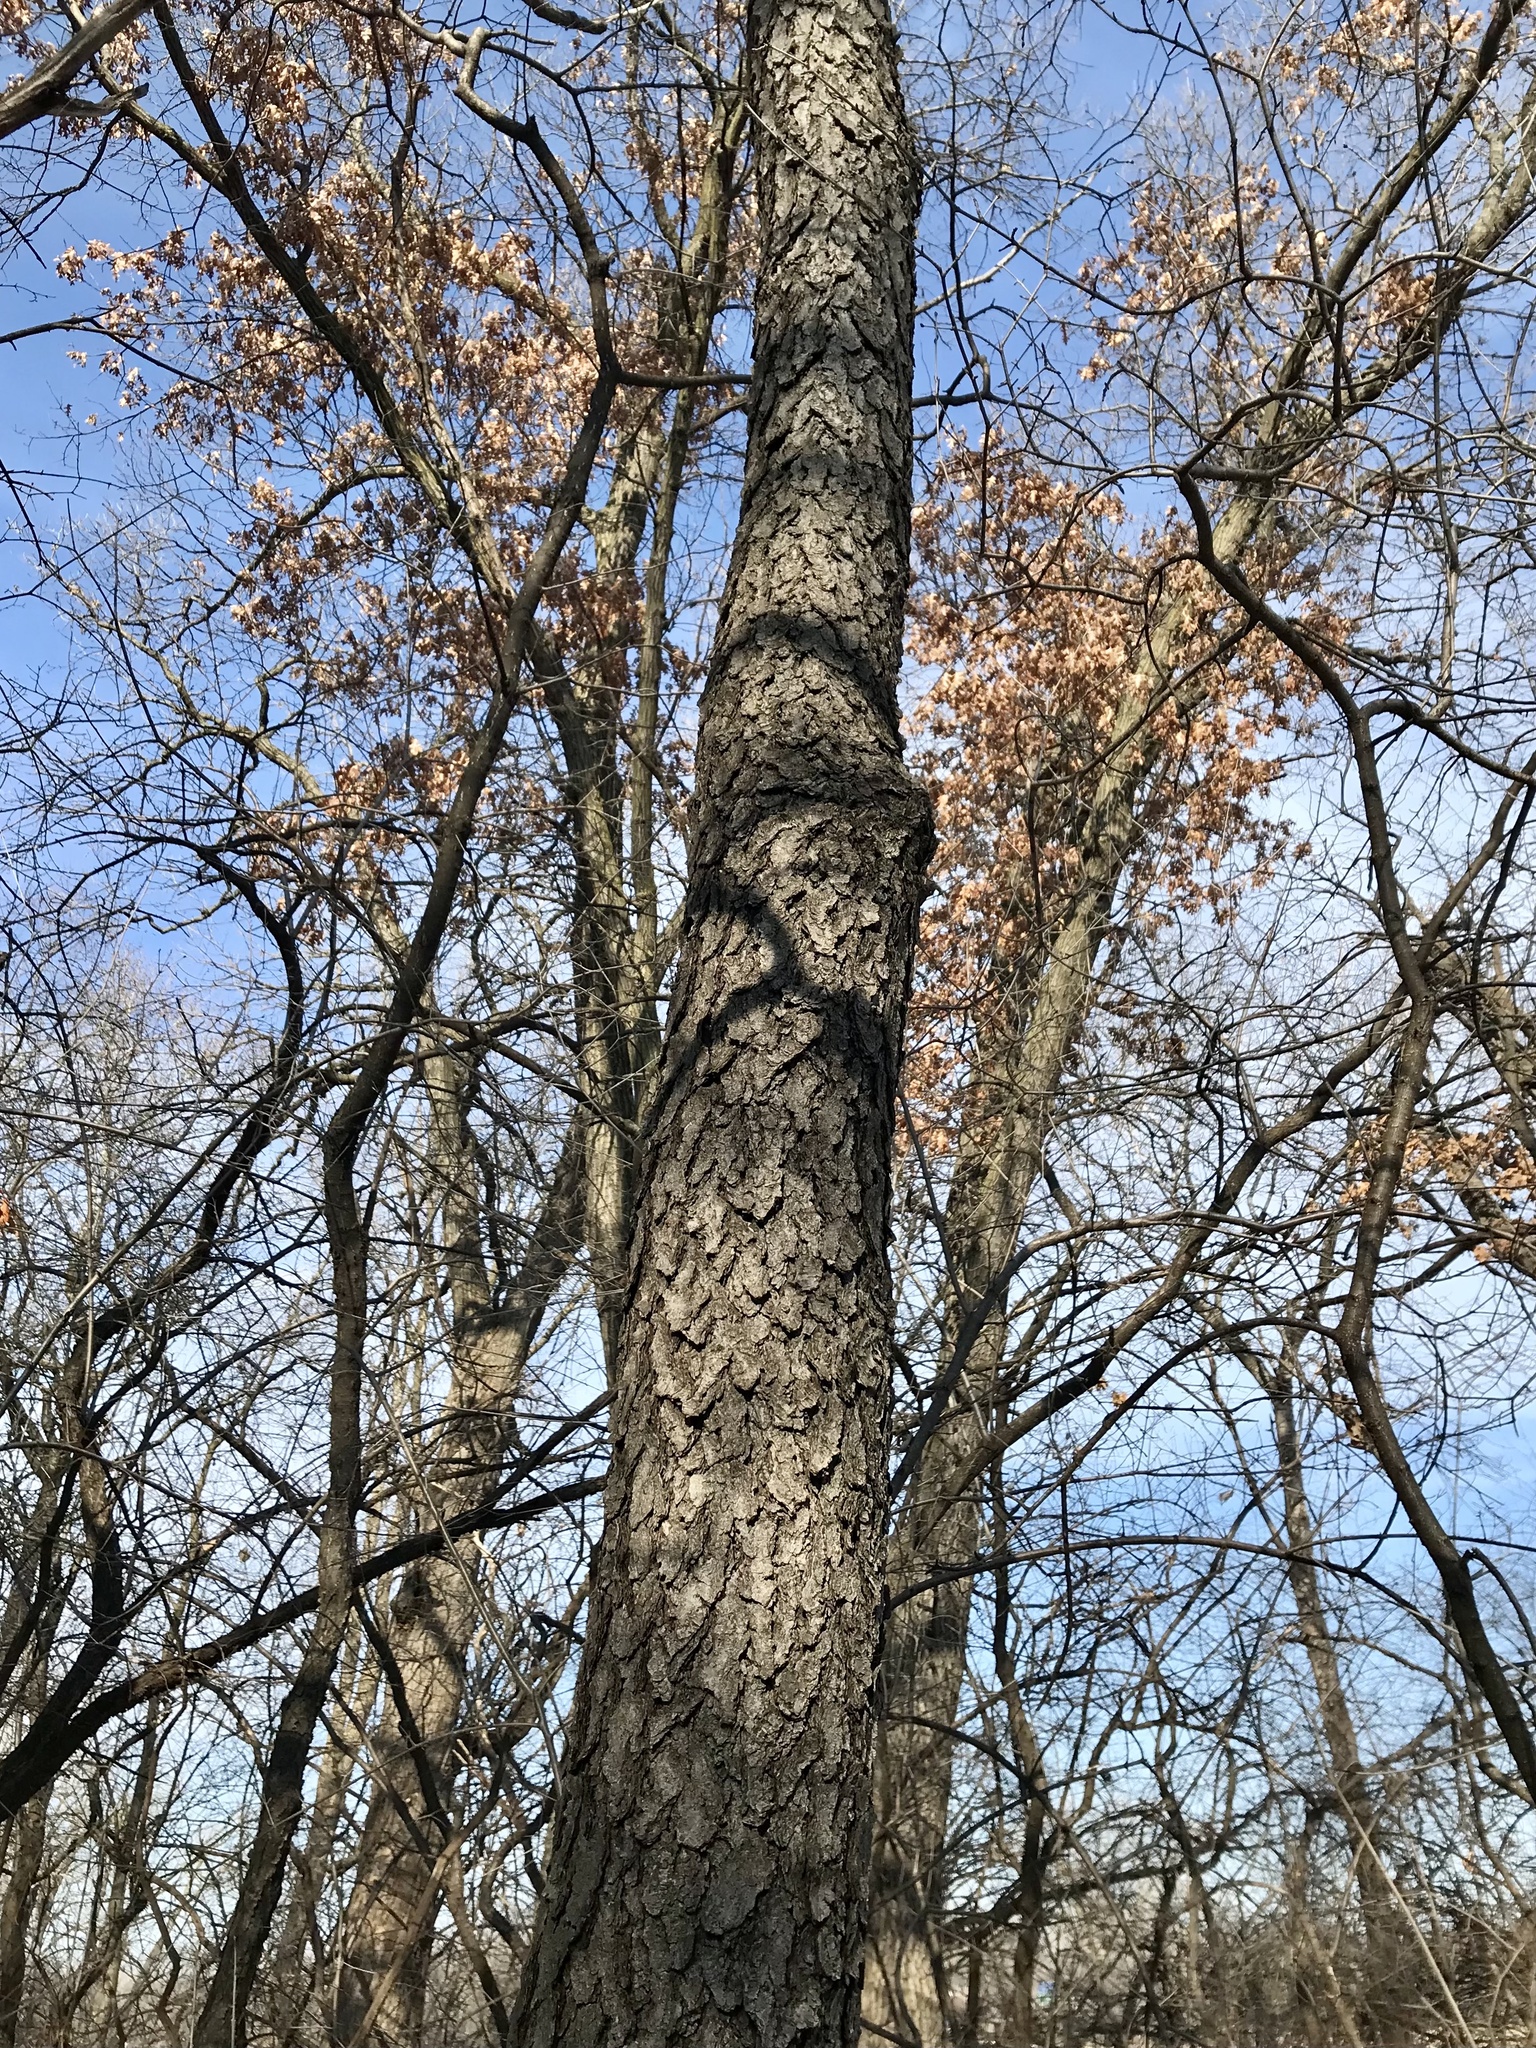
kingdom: Plantae
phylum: Tracheophyta
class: Magnoliopsida
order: Rosales
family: Rosaceae
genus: Prunus
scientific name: Prunus serotina
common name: Black cherry
